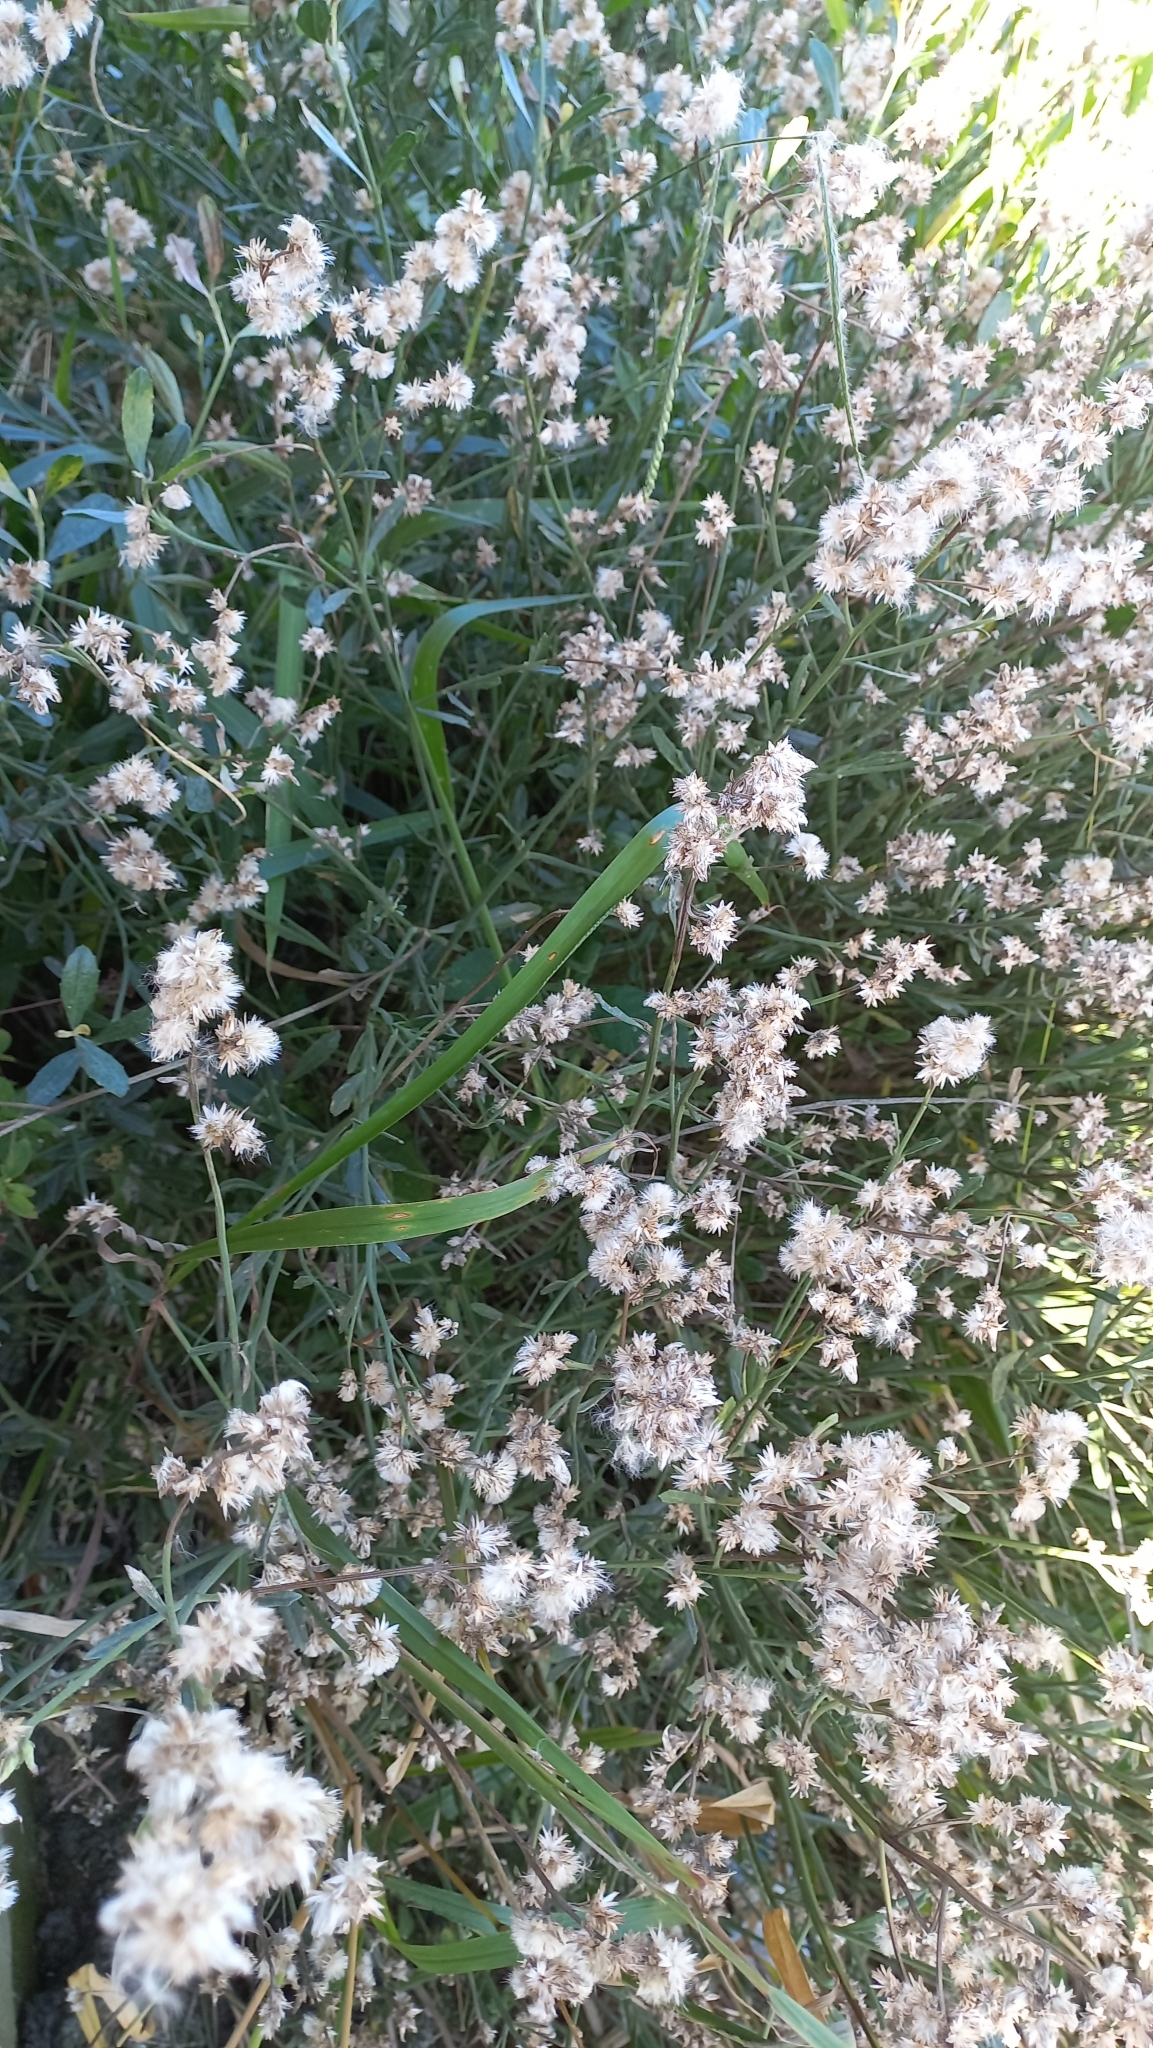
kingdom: Plantae
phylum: Tracheophyta
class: Magnoliopsida
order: Asterales
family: Asteraceae
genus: Baccharis
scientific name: Baccharis spicata
